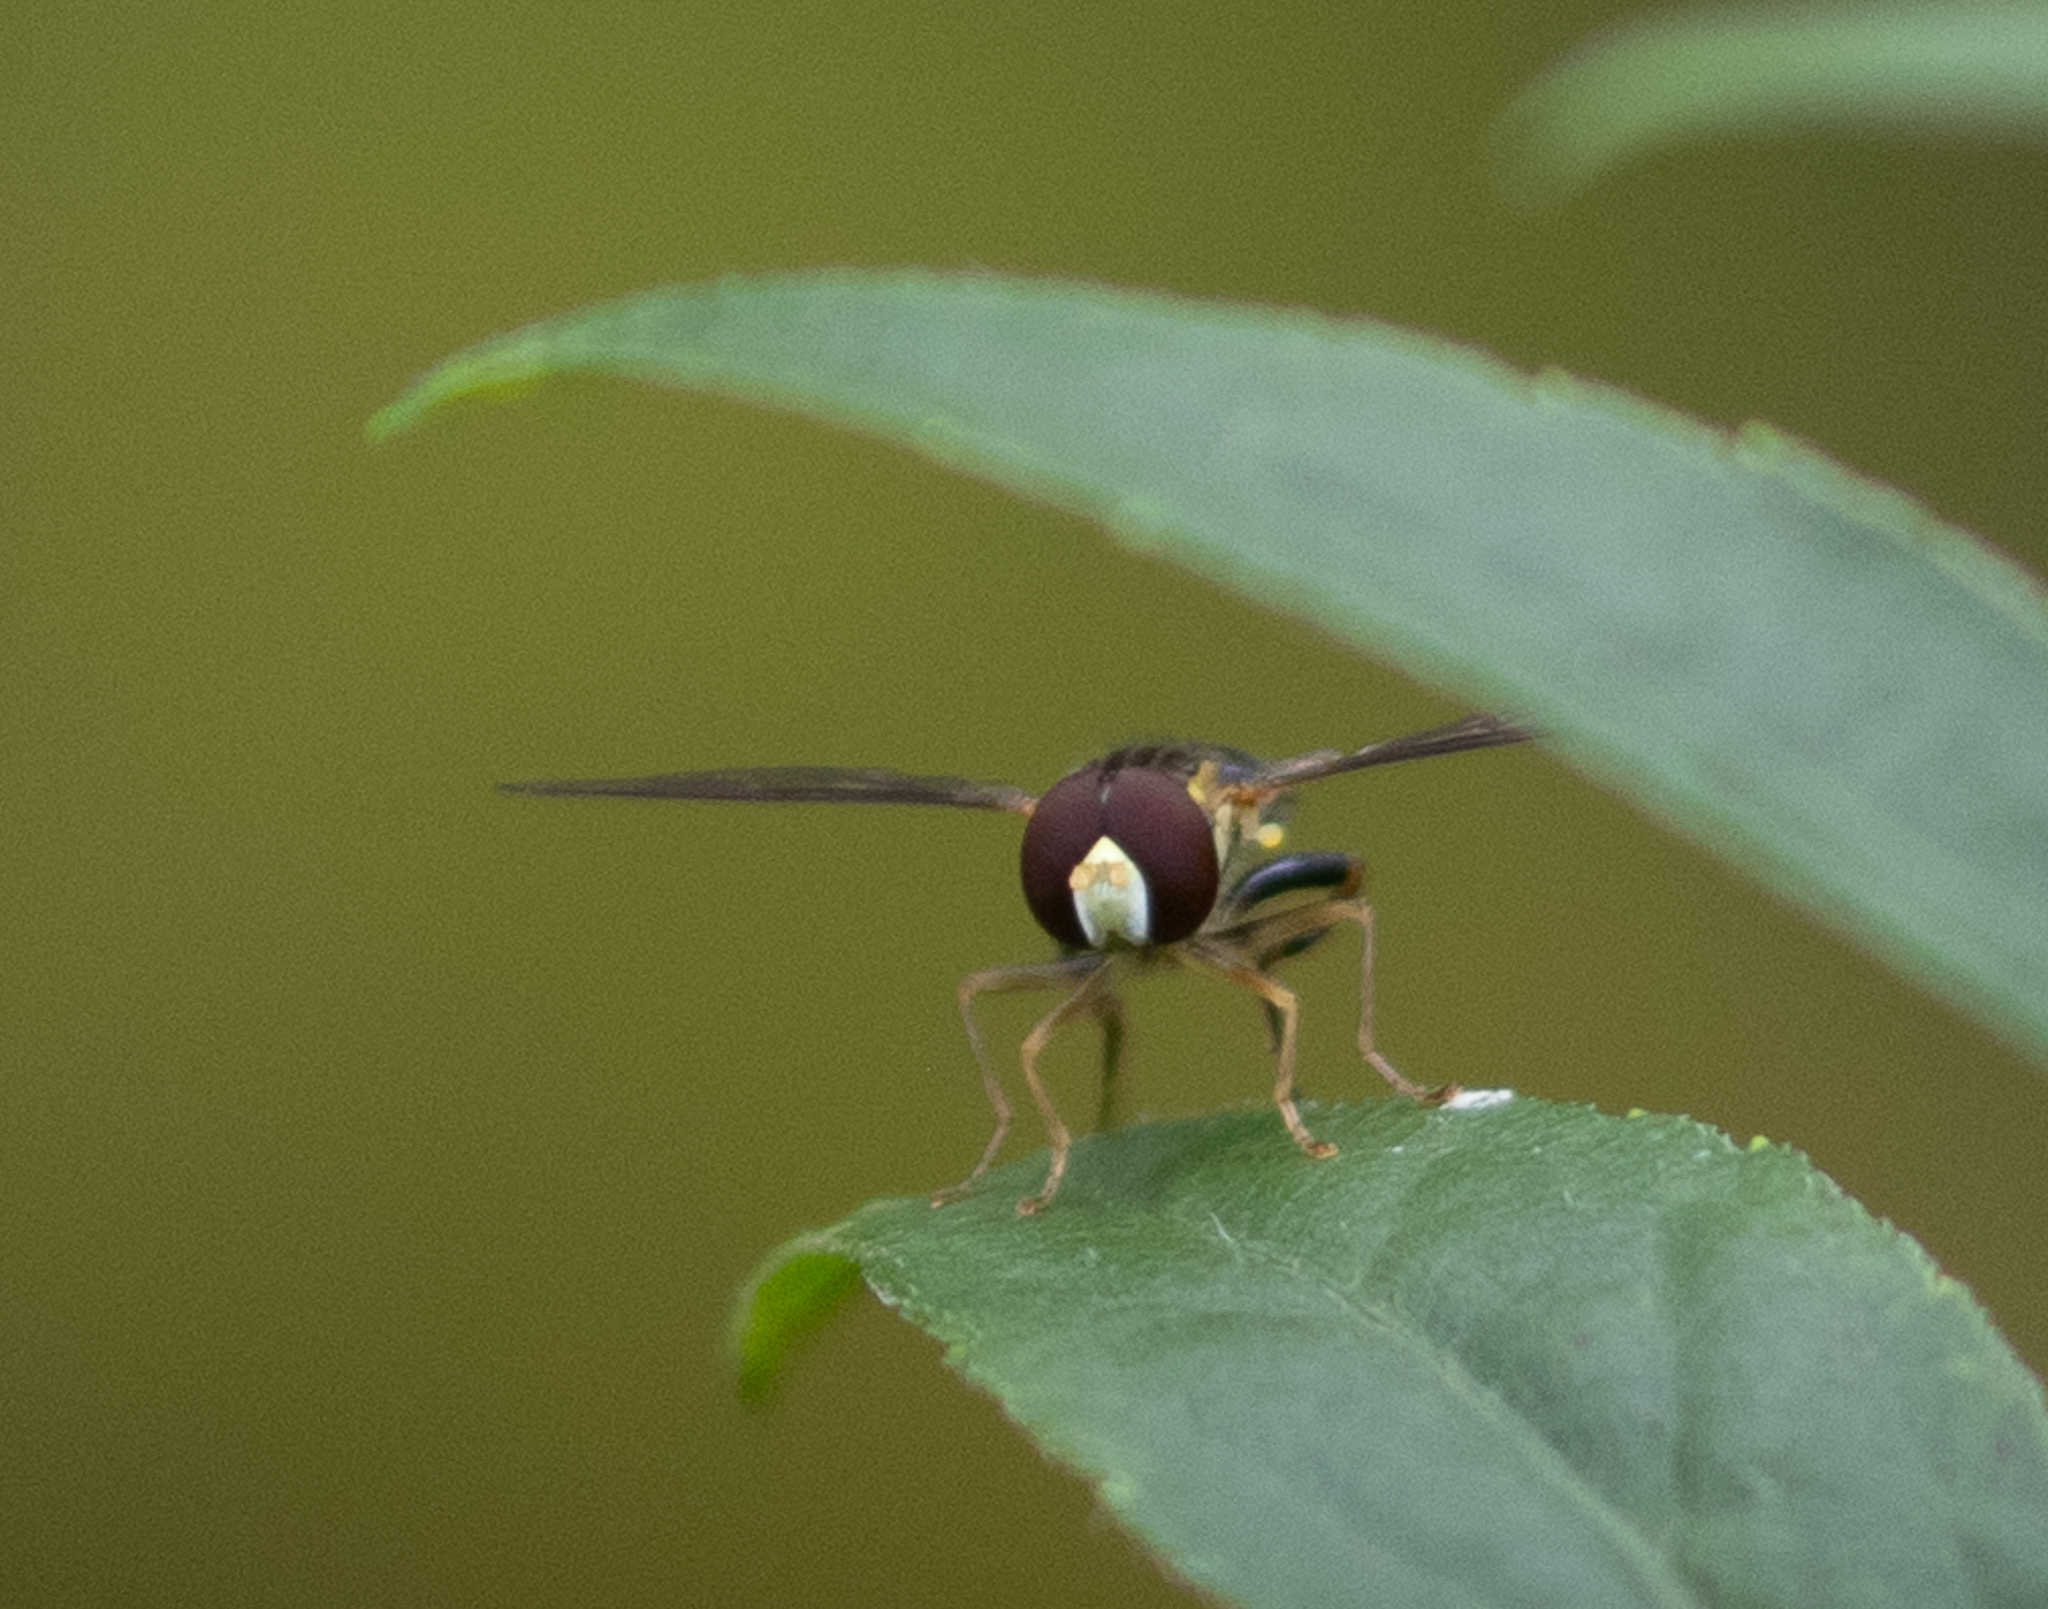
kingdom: Animalia
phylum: Arthropoda
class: Insecta
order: Diptera
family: Syrphidae
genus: Toxomerus
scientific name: Toxomerus geminatus
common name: Eastern calligrapher
